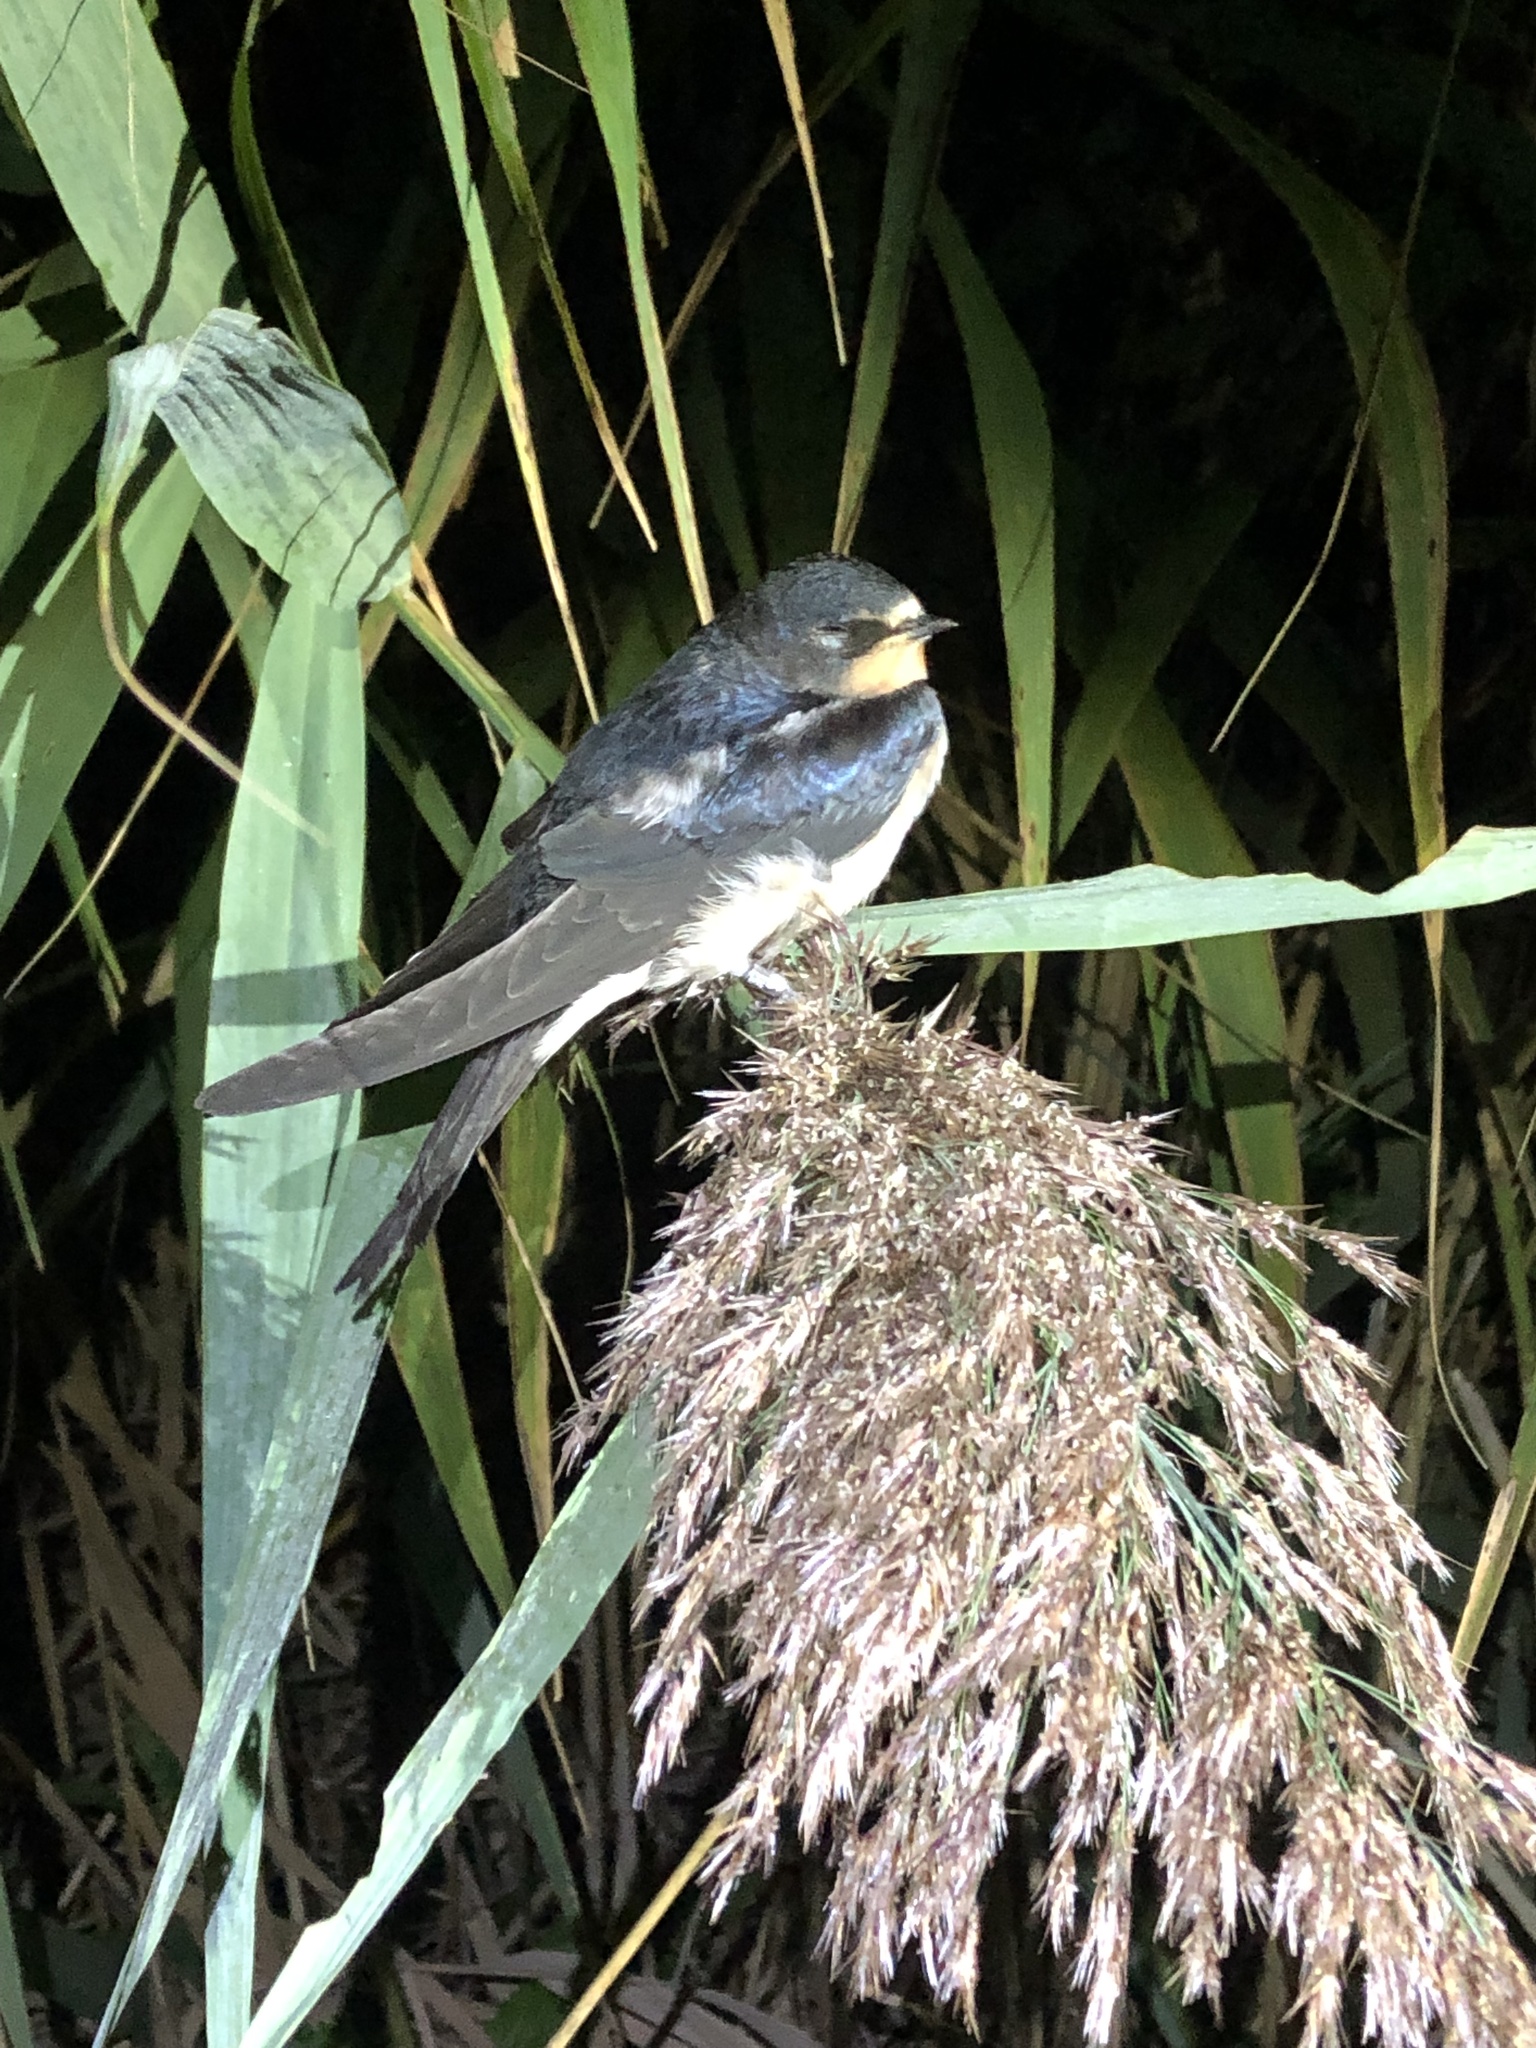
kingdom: Animalia
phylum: Chordata
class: Aves
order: Passeriformes
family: Hirundinidae
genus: Hirundo
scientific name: Hirundo rustica
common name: Barn swallow
